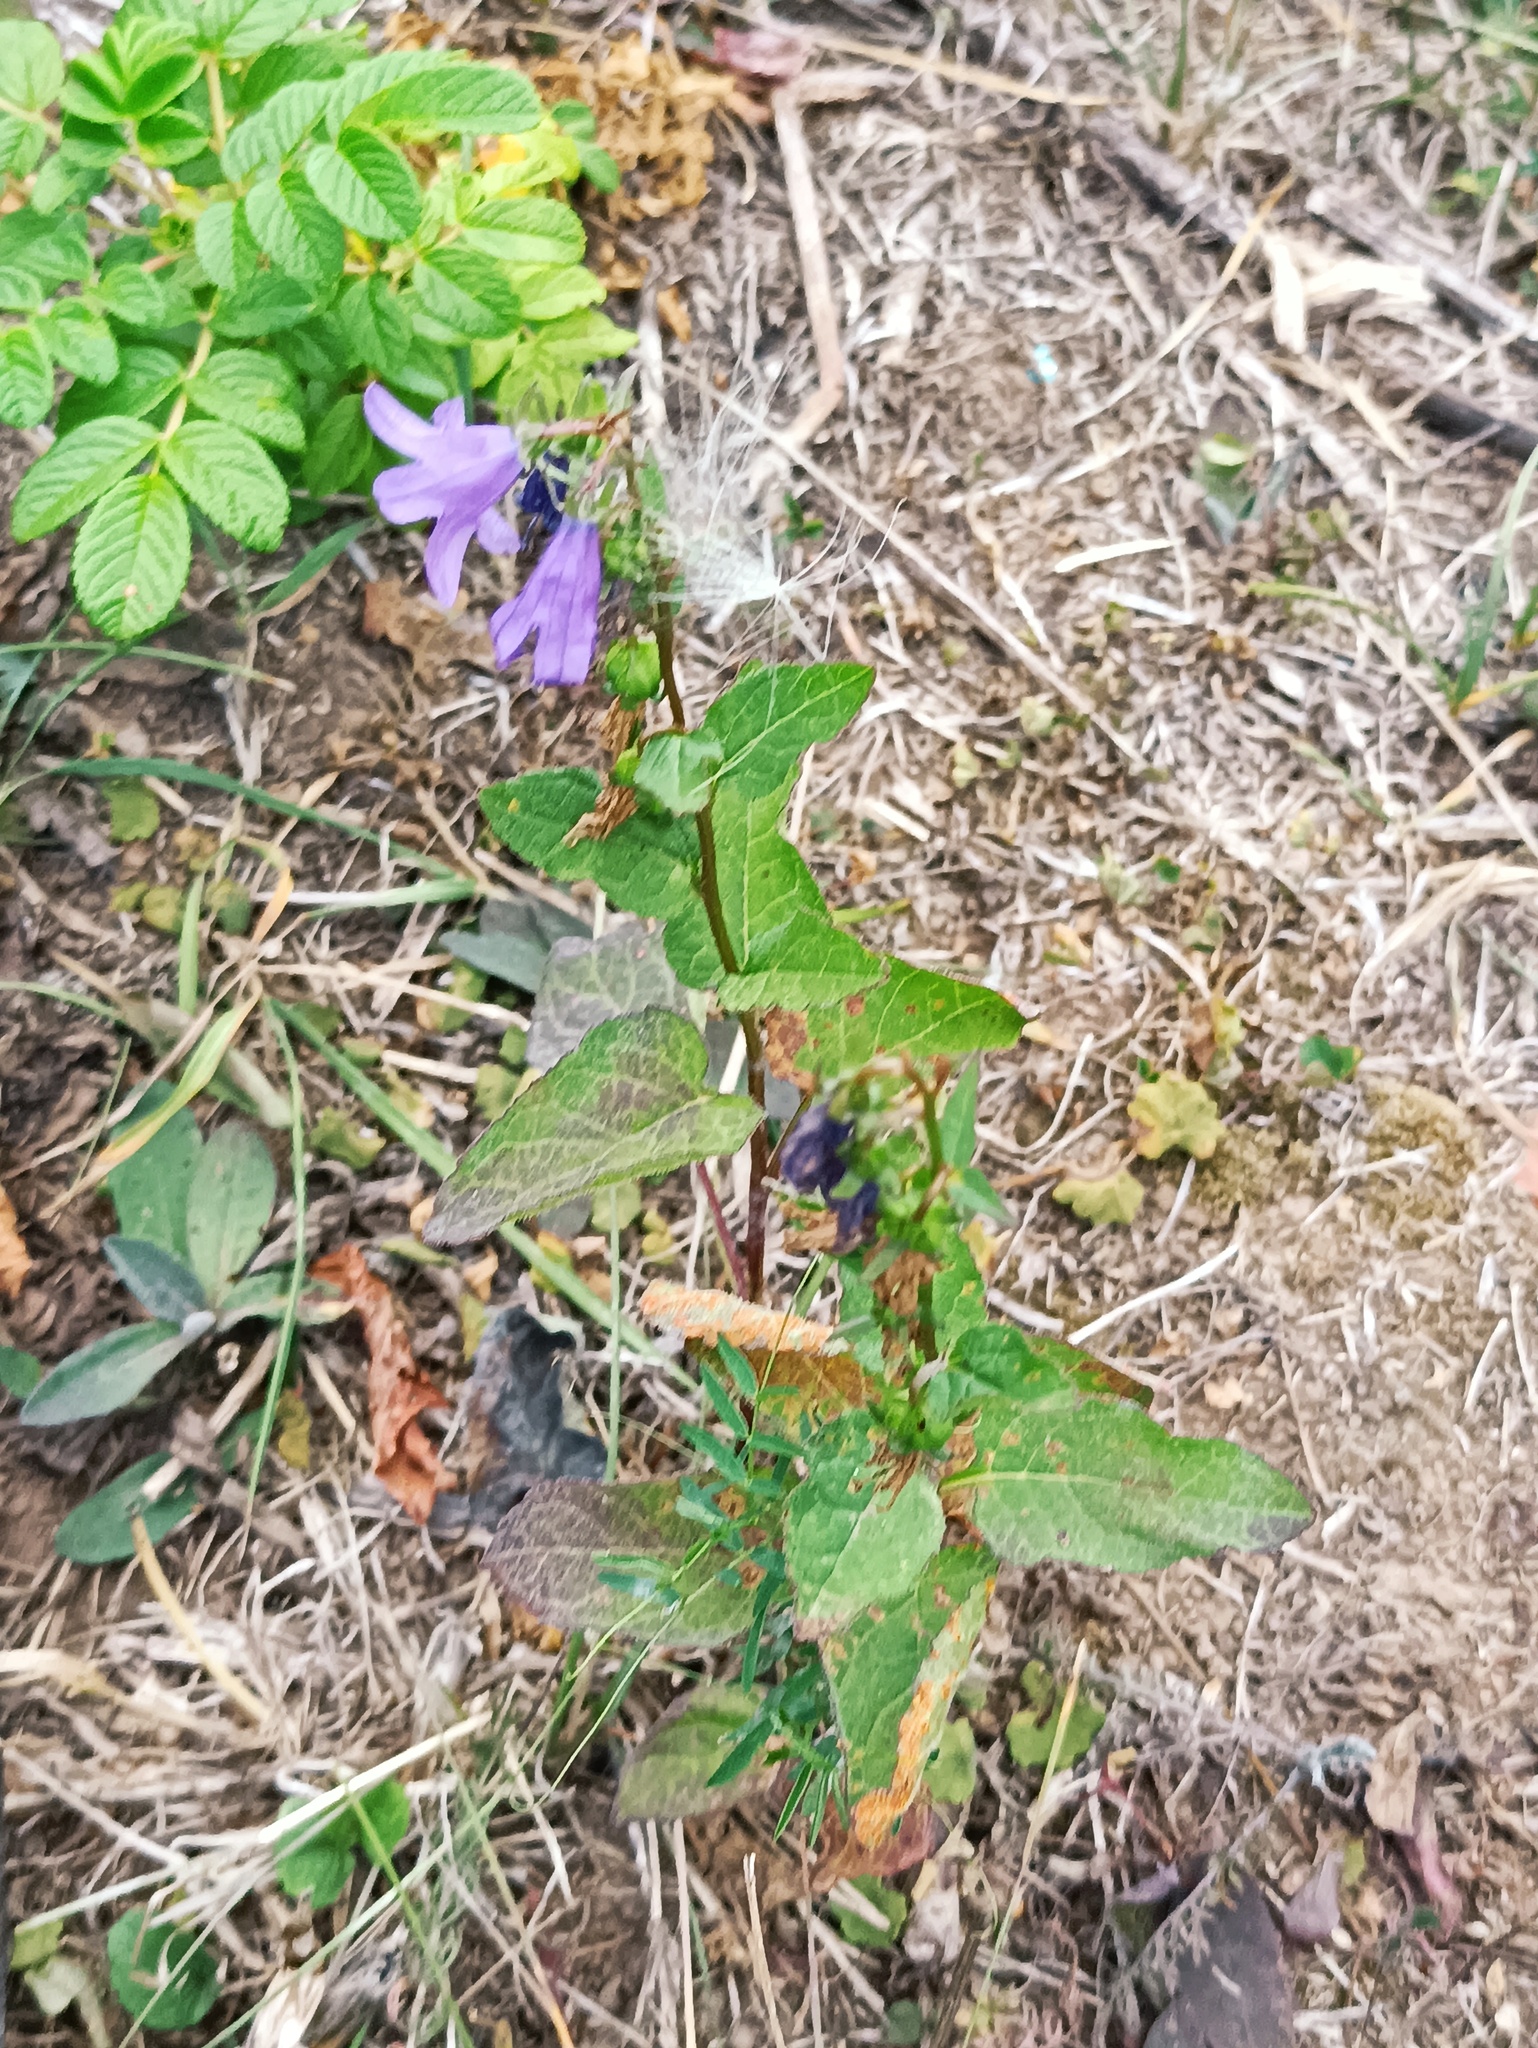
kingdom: Plantae
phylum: Tracheophyta
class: Magnoliopsida
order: Asterales
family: Campanulaceae
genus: Campanula
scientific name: Campanula rapunculoides
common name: Creeping bellflower
